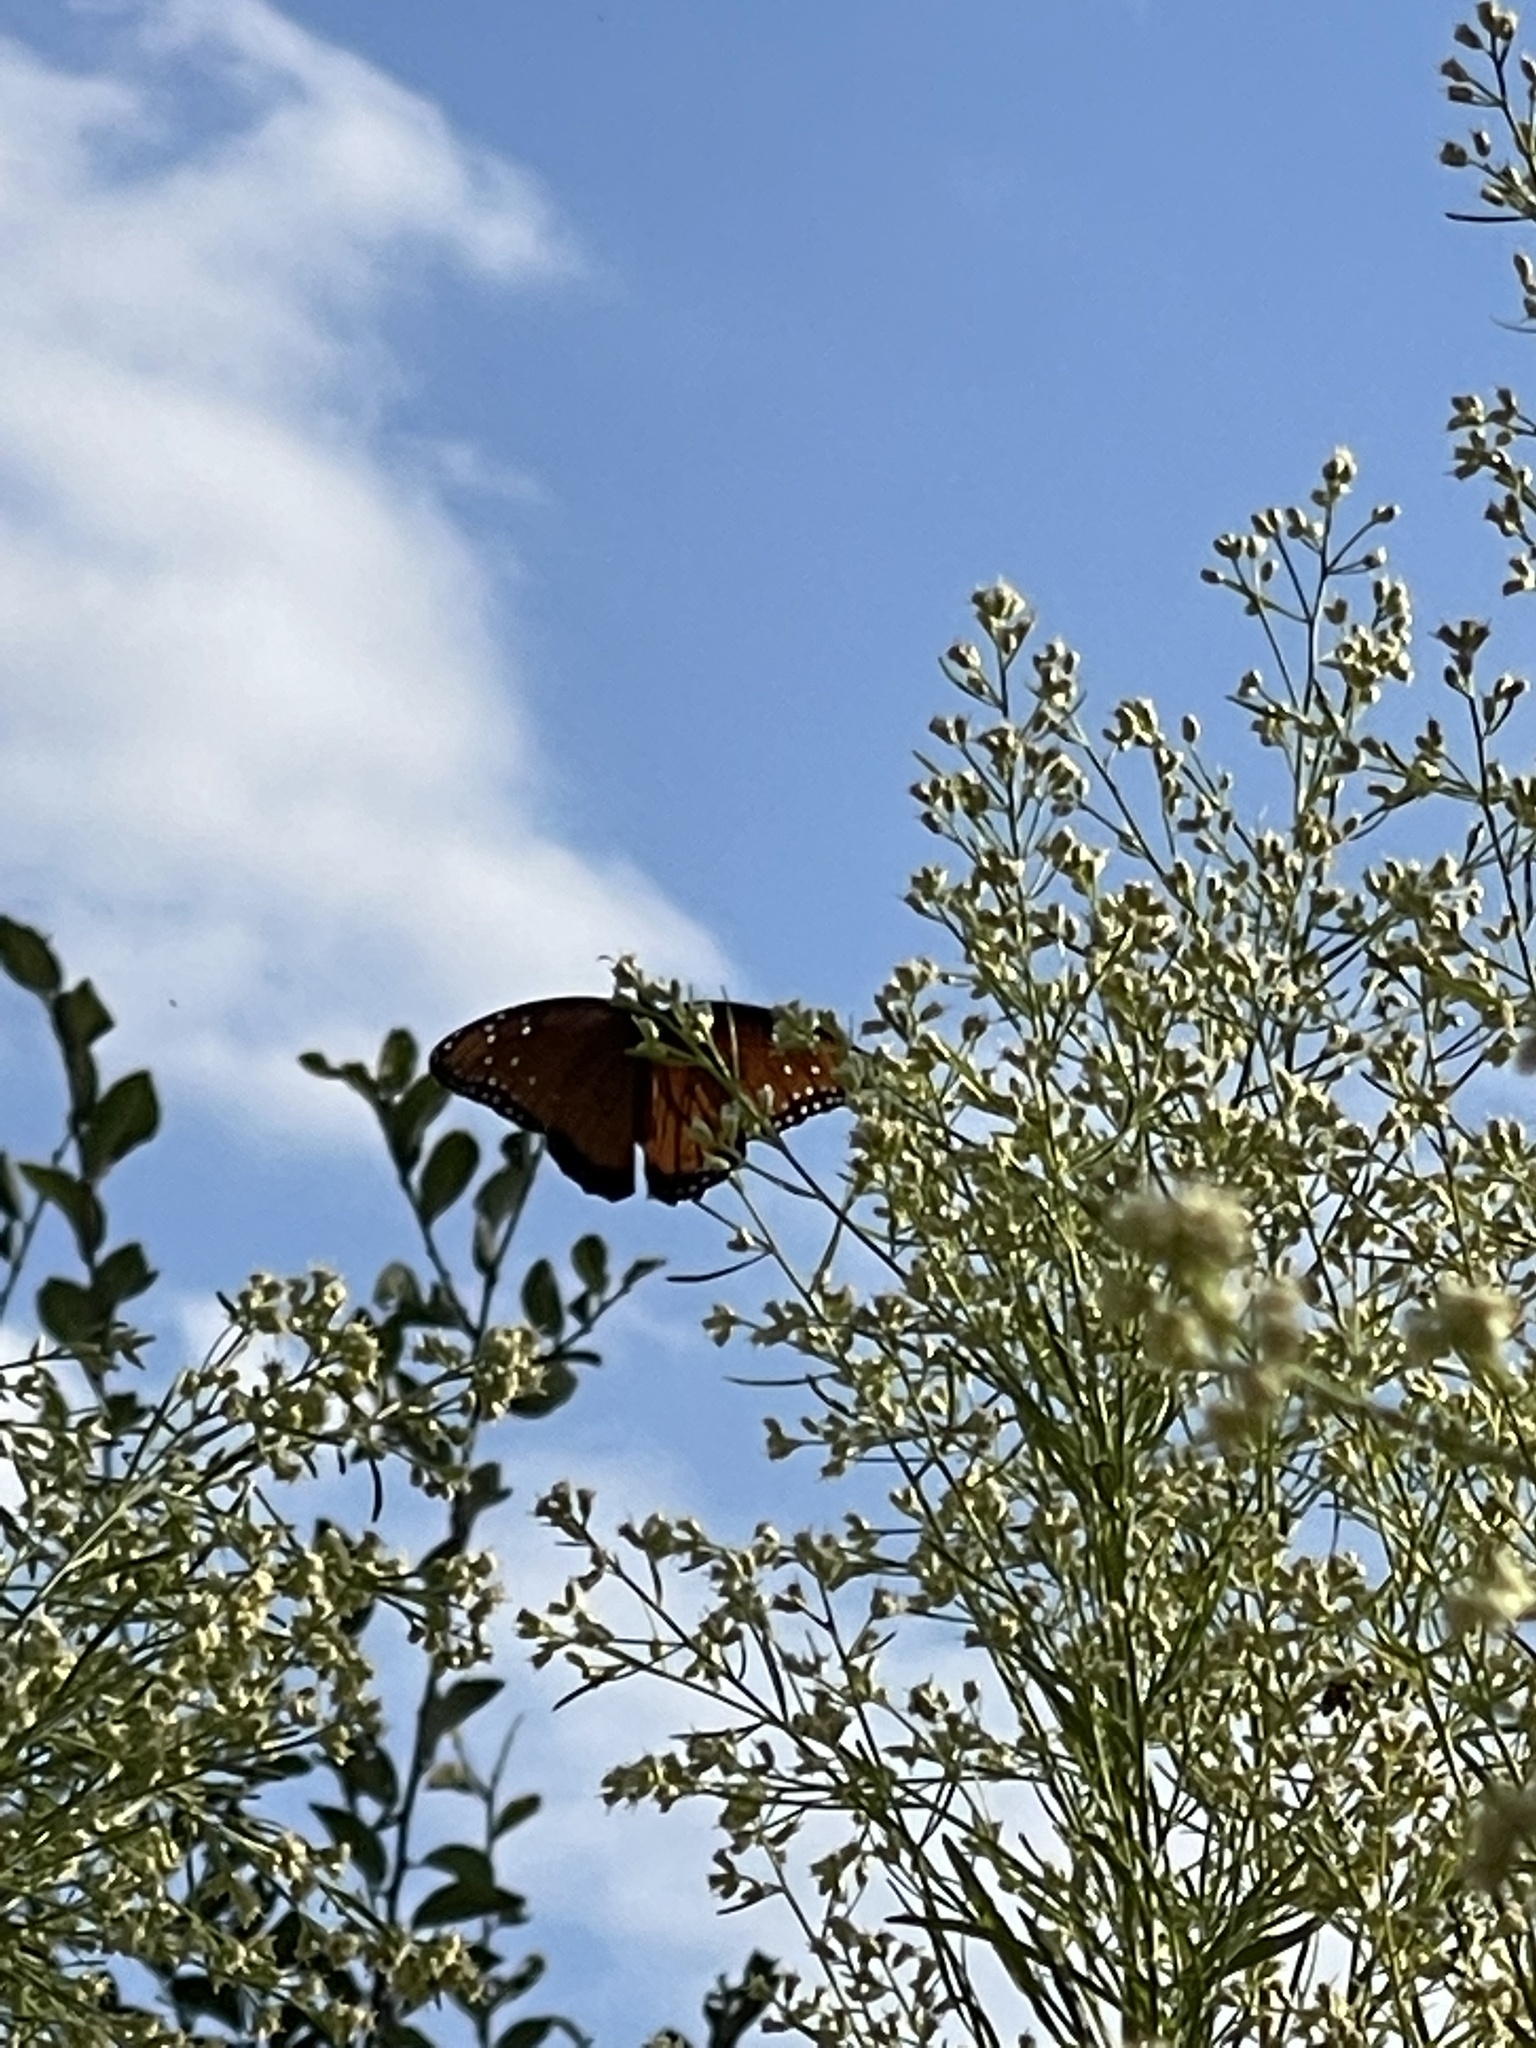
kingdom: Animalia
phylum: Arthropoda
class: Insecta
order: Lepidoptera
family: Nymphalidae
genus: Danaus
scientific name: Danaus gilippus
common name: Queen
